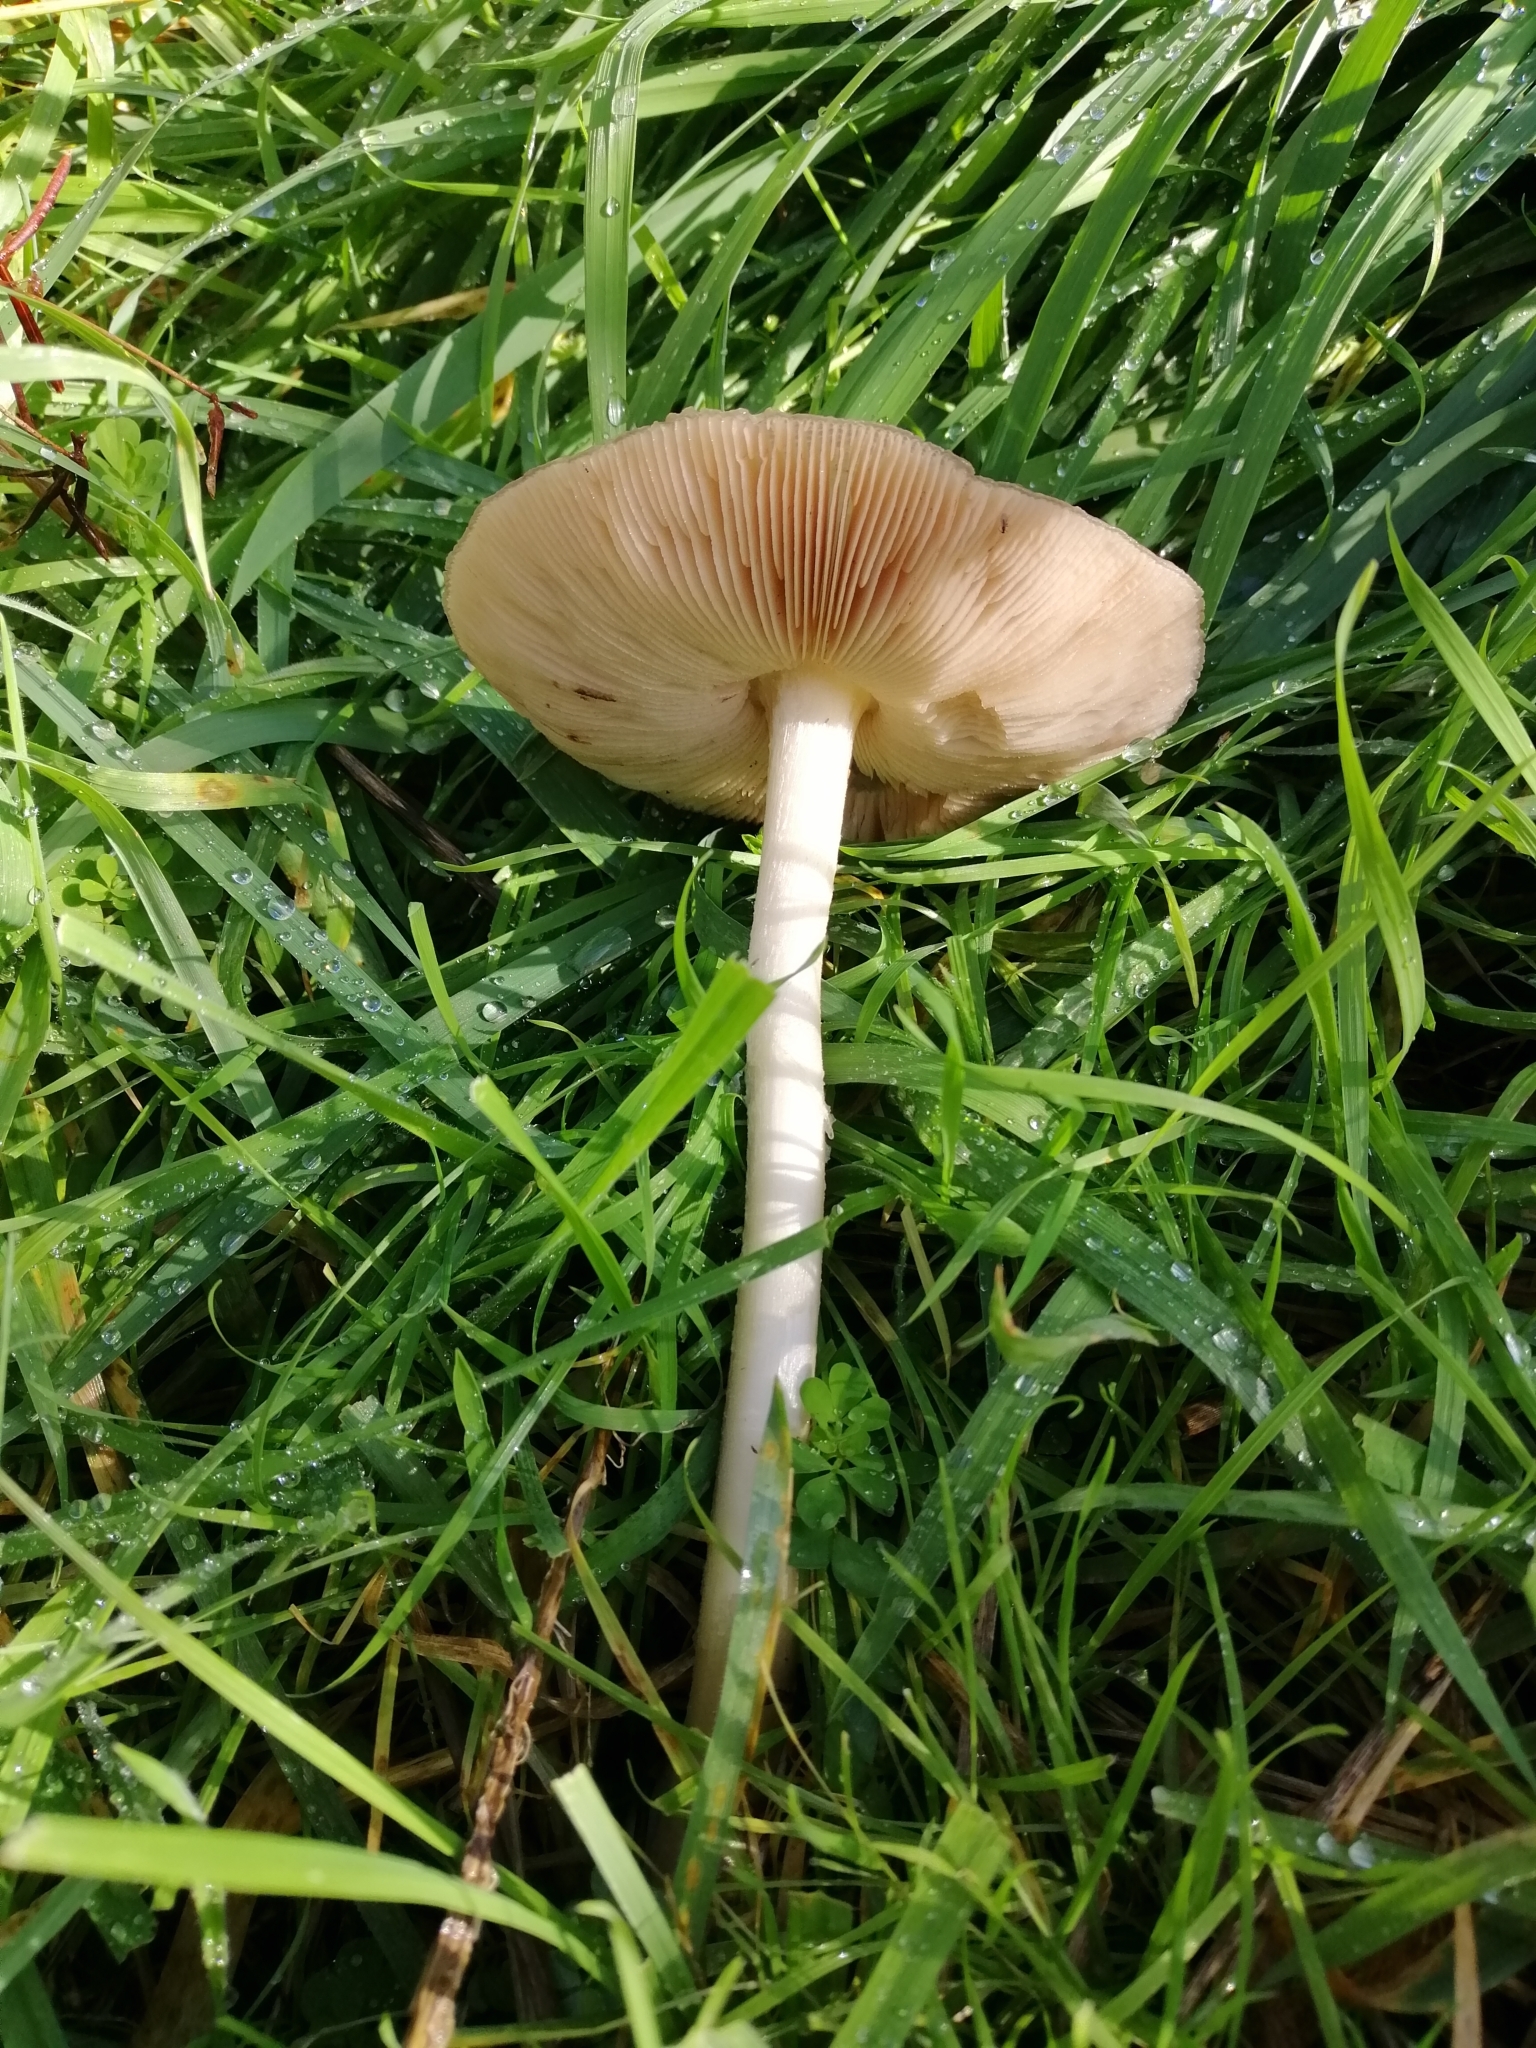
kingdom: Fungi
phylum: Basidiomycota
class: Agaricomycetes
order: Agaricales
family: Pluteaceae
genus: Volvopluteus
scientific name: Volvopluteus gloiocephalus
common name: Stubble rosegill
